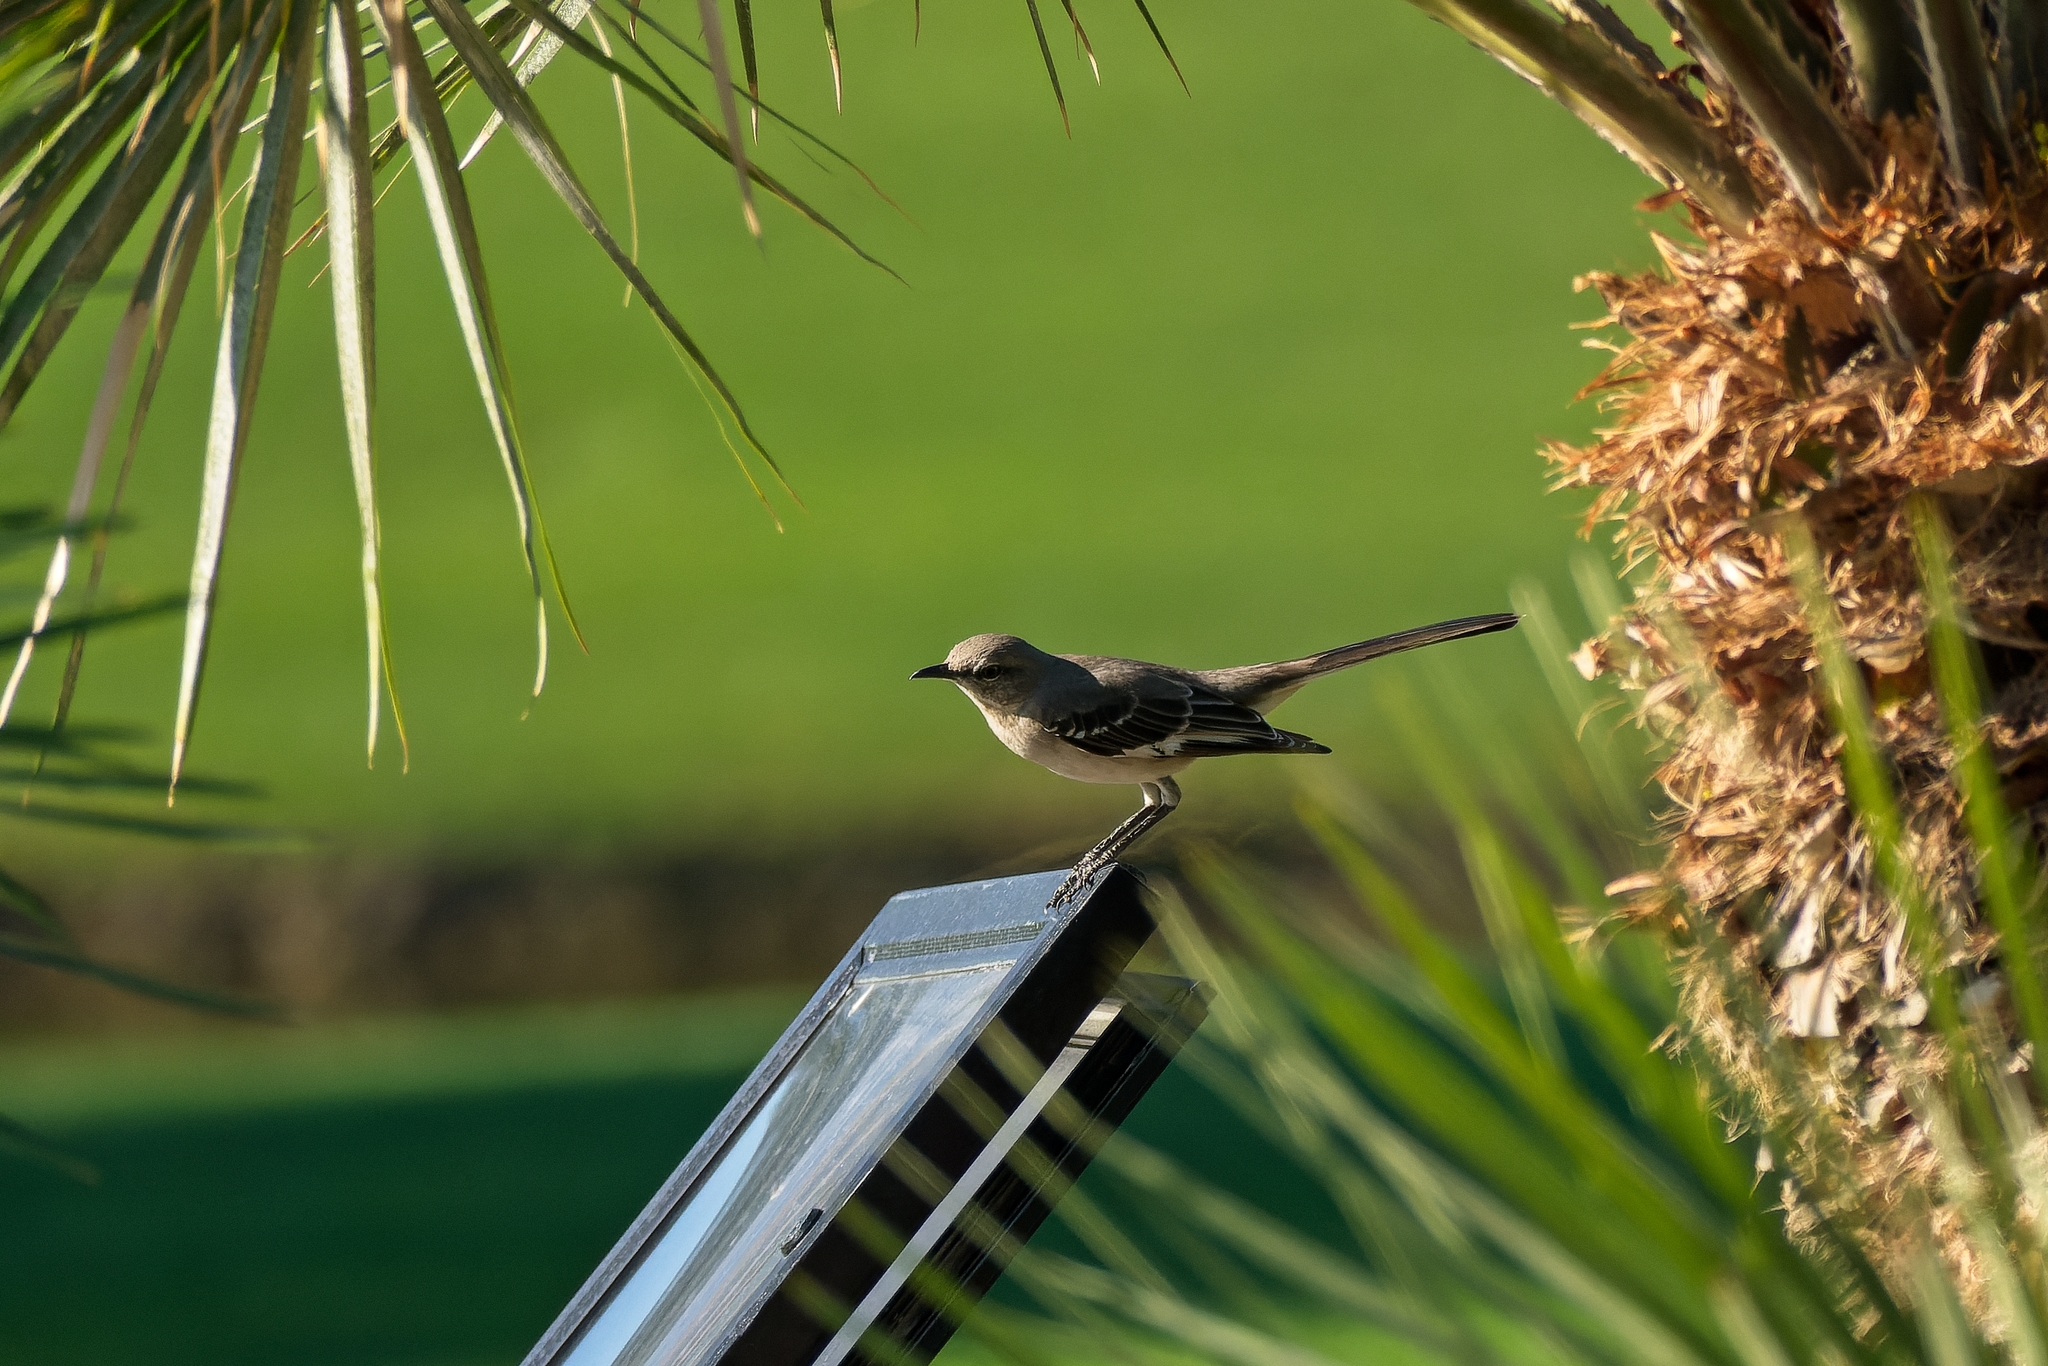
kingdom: Animalia
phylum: Chordata
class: Aves
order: Passeriformes
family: Mimidae
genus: Mimus
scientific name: Mimus polyglottos
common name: Northern mockingbird
